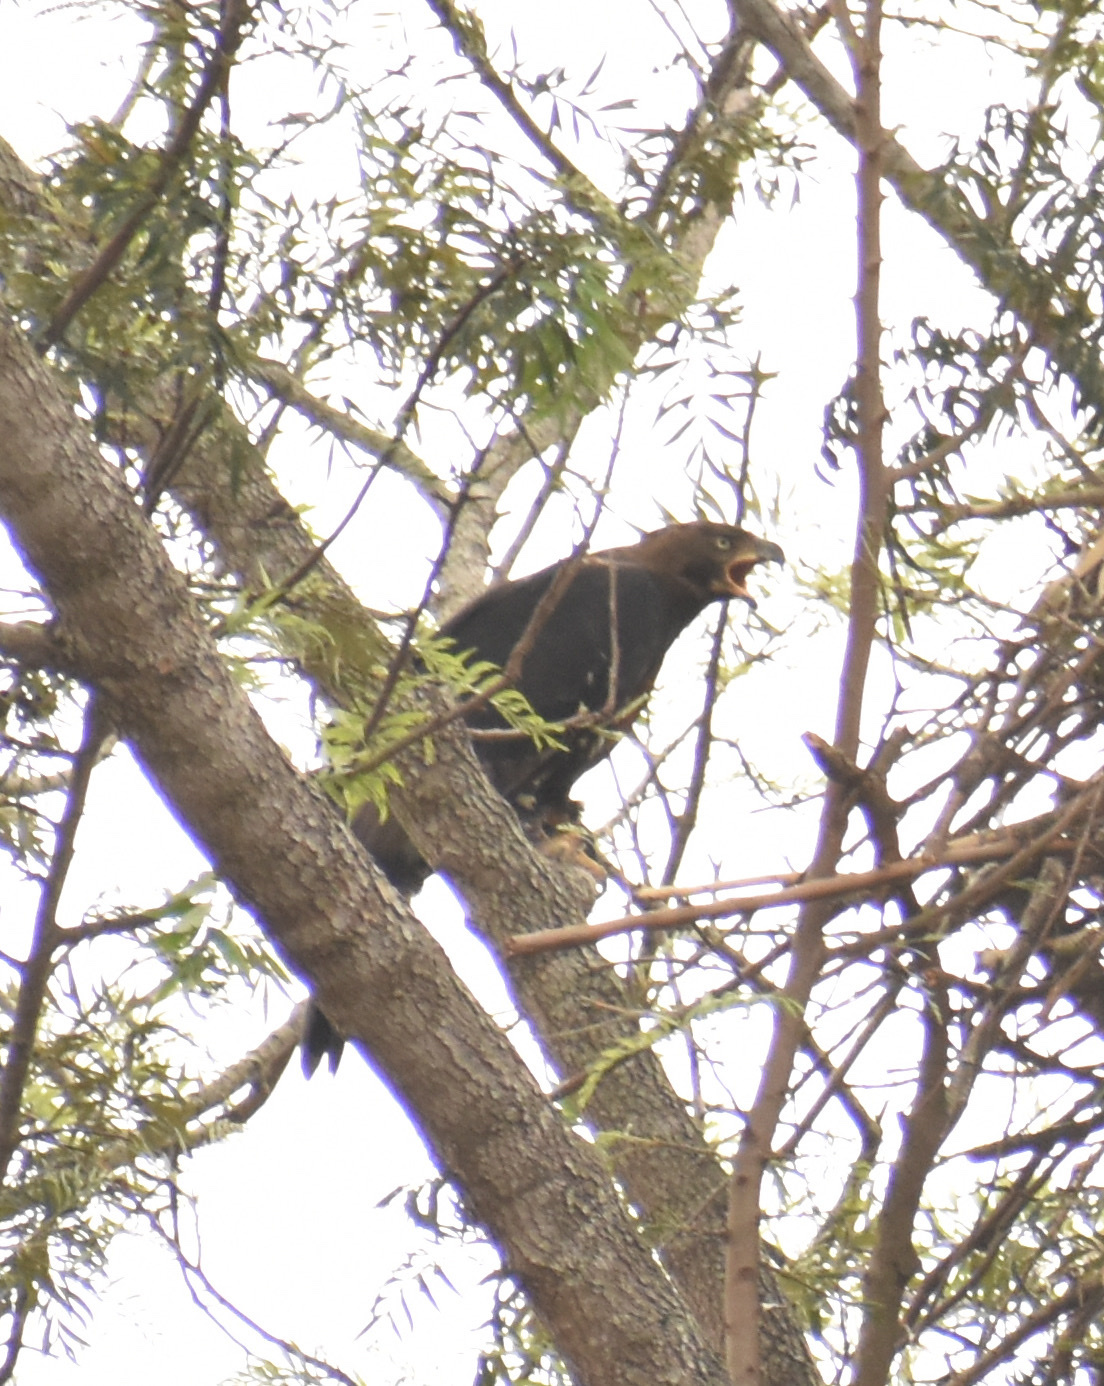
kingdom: Animalia
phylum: Chordata
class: Aves
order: Accipitriformes
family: Accipitridae
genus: Stephanoaetus
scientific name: Stephanoaetus coronatus
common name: Crowned eagle
